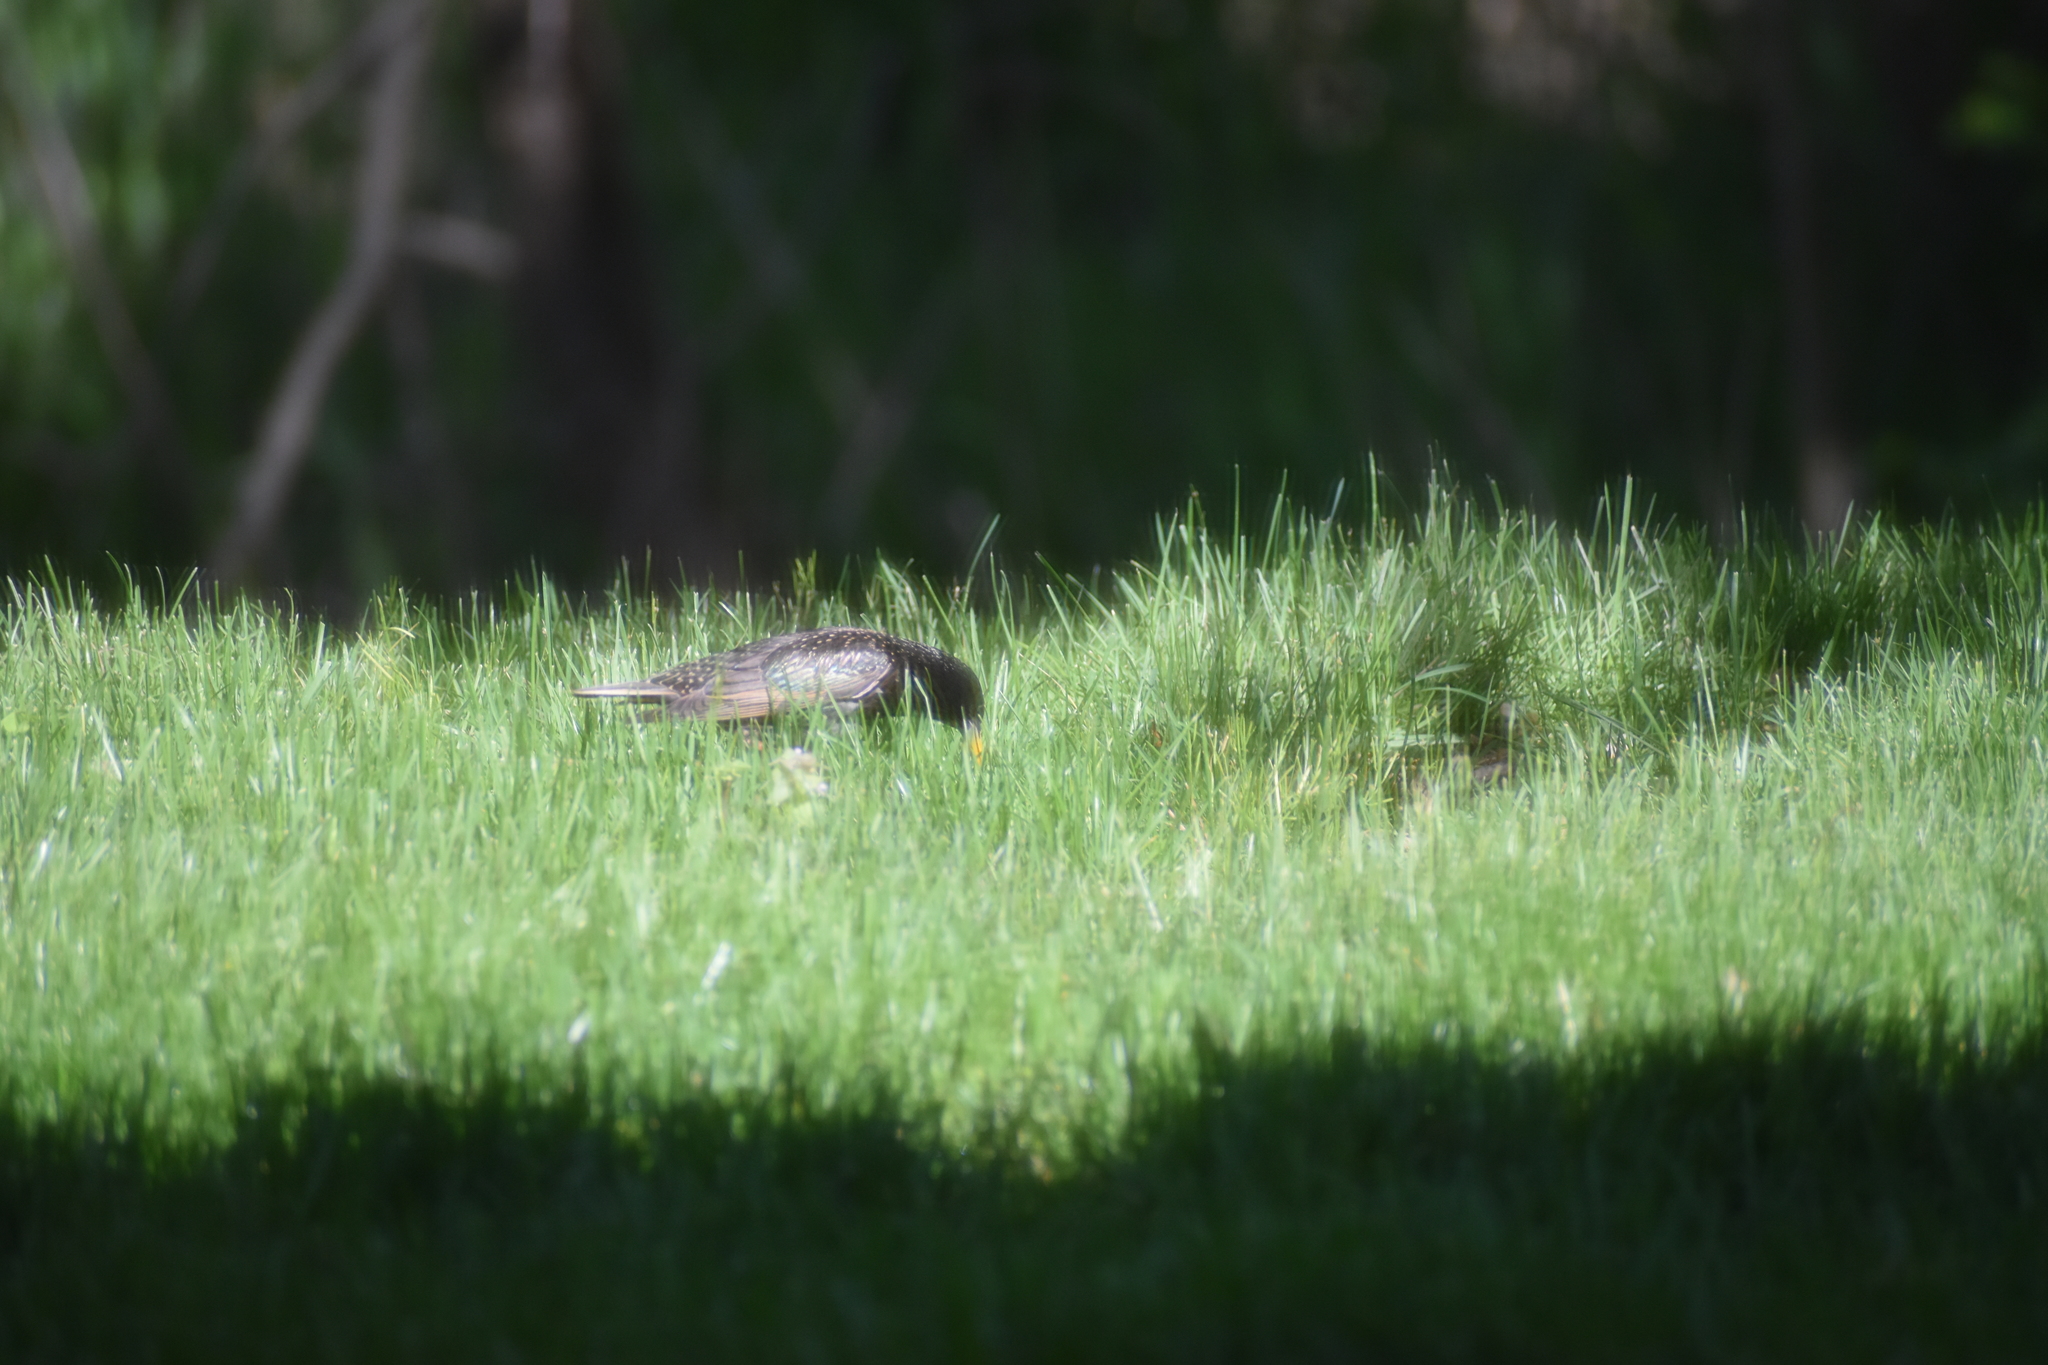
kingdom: Animalia
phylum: Chordata
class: Aves
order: Passeriformes
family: Sturnidae
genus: Sturnus
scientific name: Sturnus vulgaris
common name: Common starling
